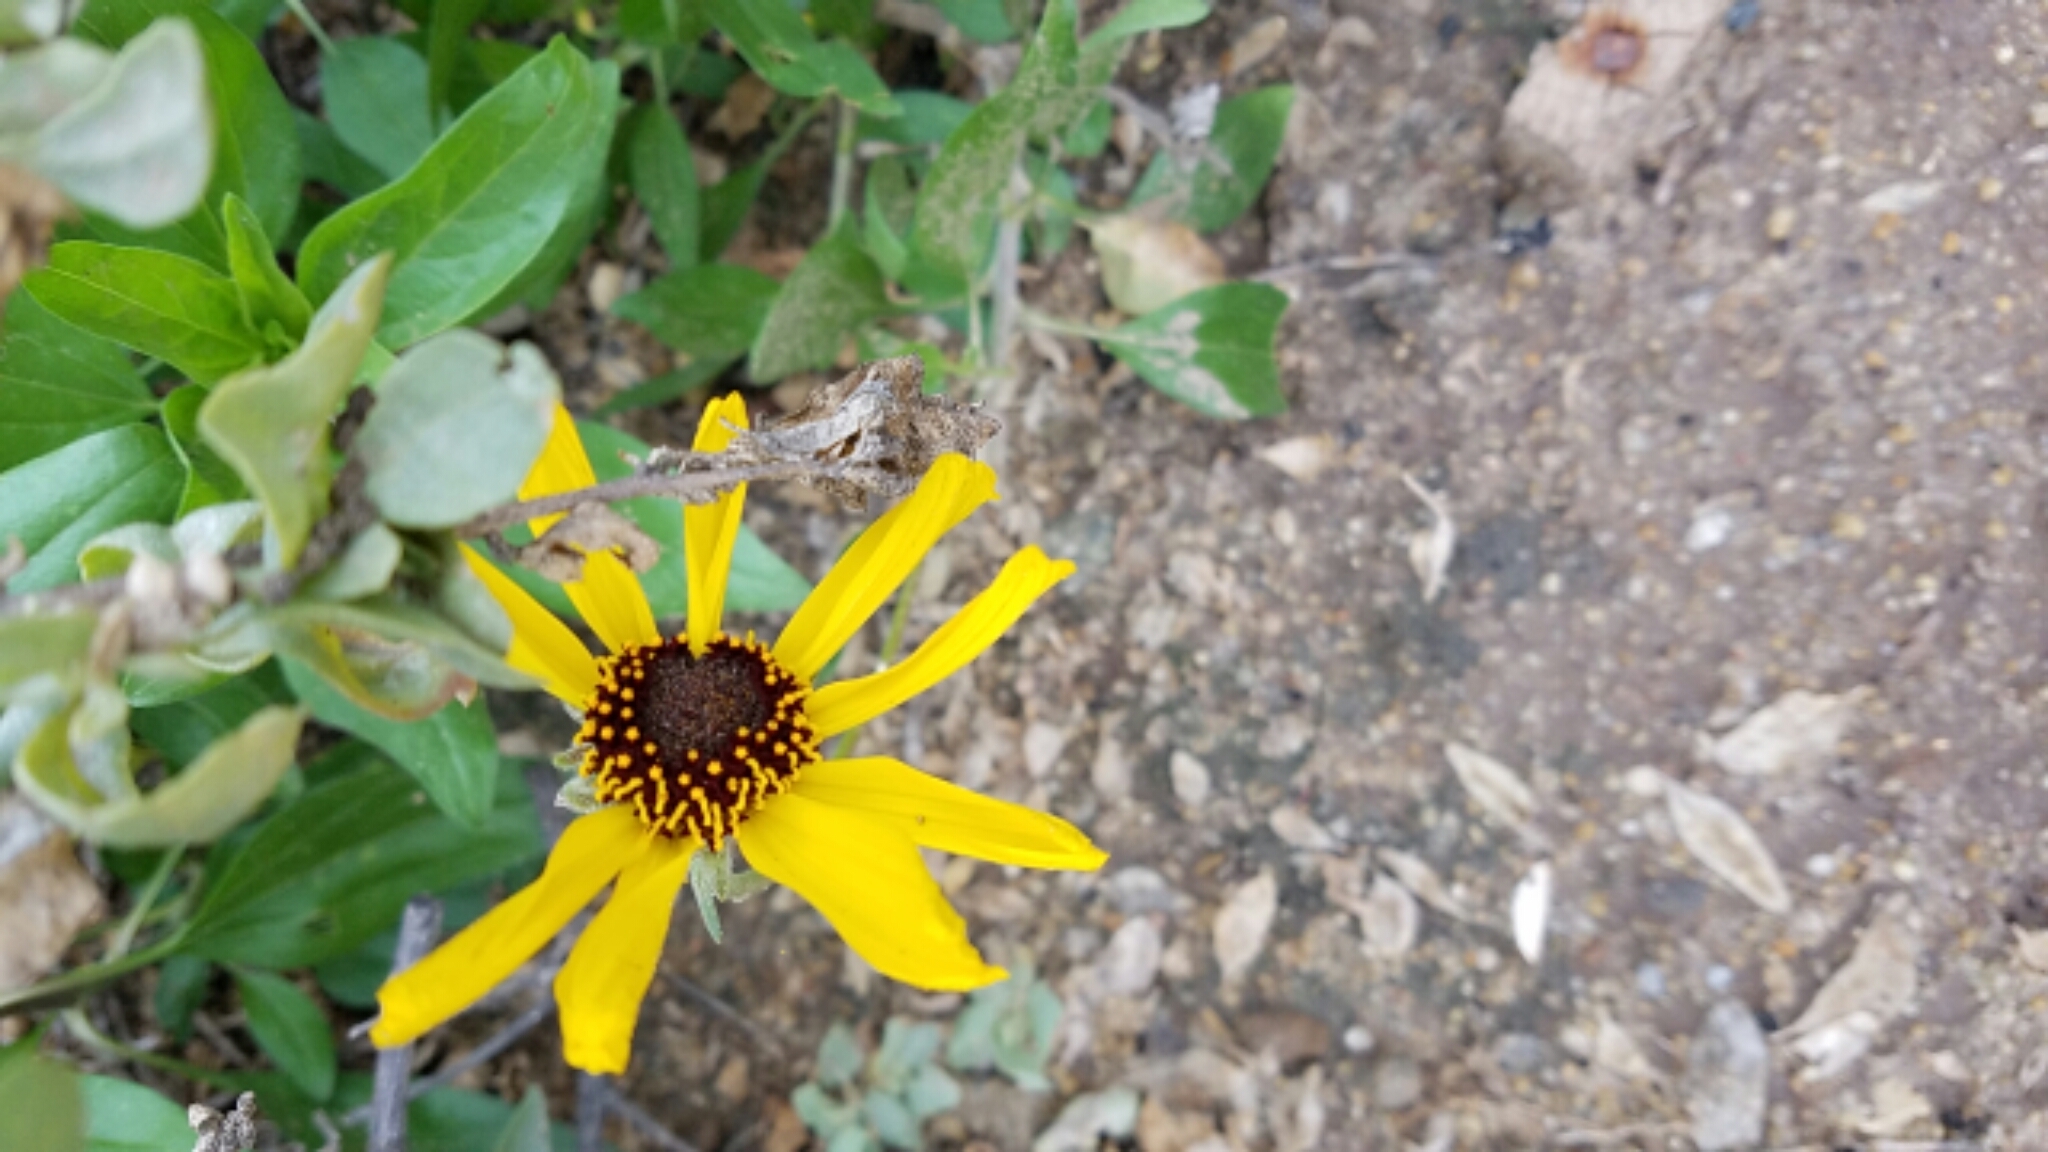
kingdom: Plantae
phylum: Tracheophyta
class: Magnoliopsida
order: Asterales
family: Asteraceae
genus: Encelia
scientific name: Encelia californica
